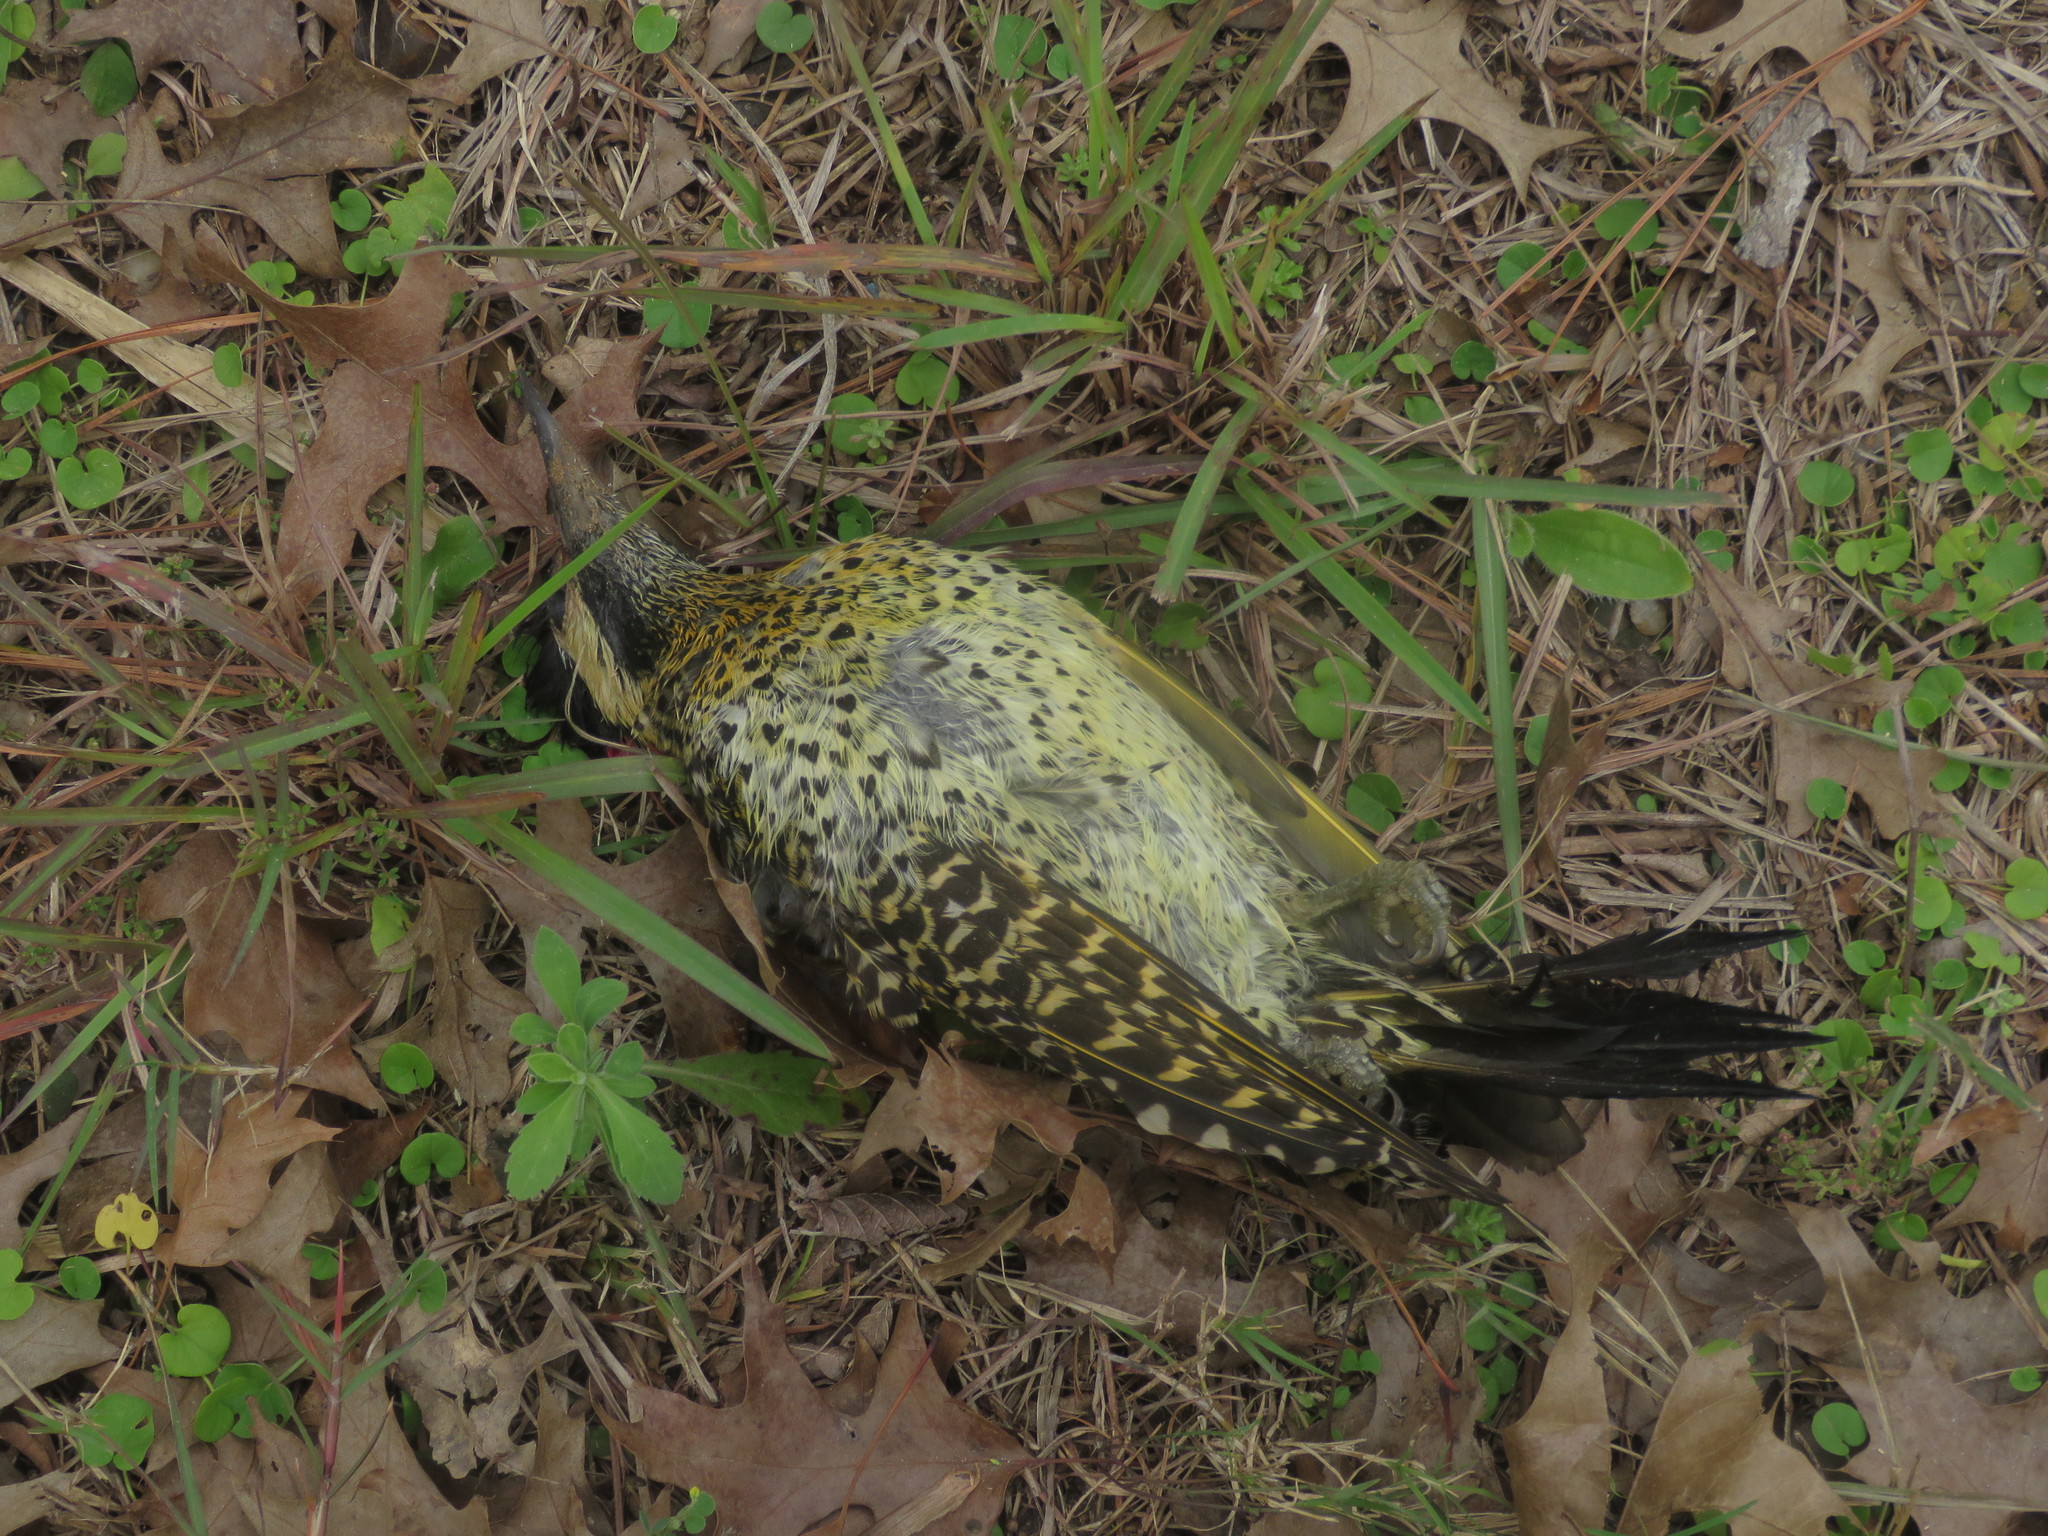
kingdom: Animalia
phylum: Chordata
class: Aves
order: Piciformes
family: Picidae
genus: Colaptes
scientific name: Colaptes melanochloros
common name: Green-barred woodpecker
